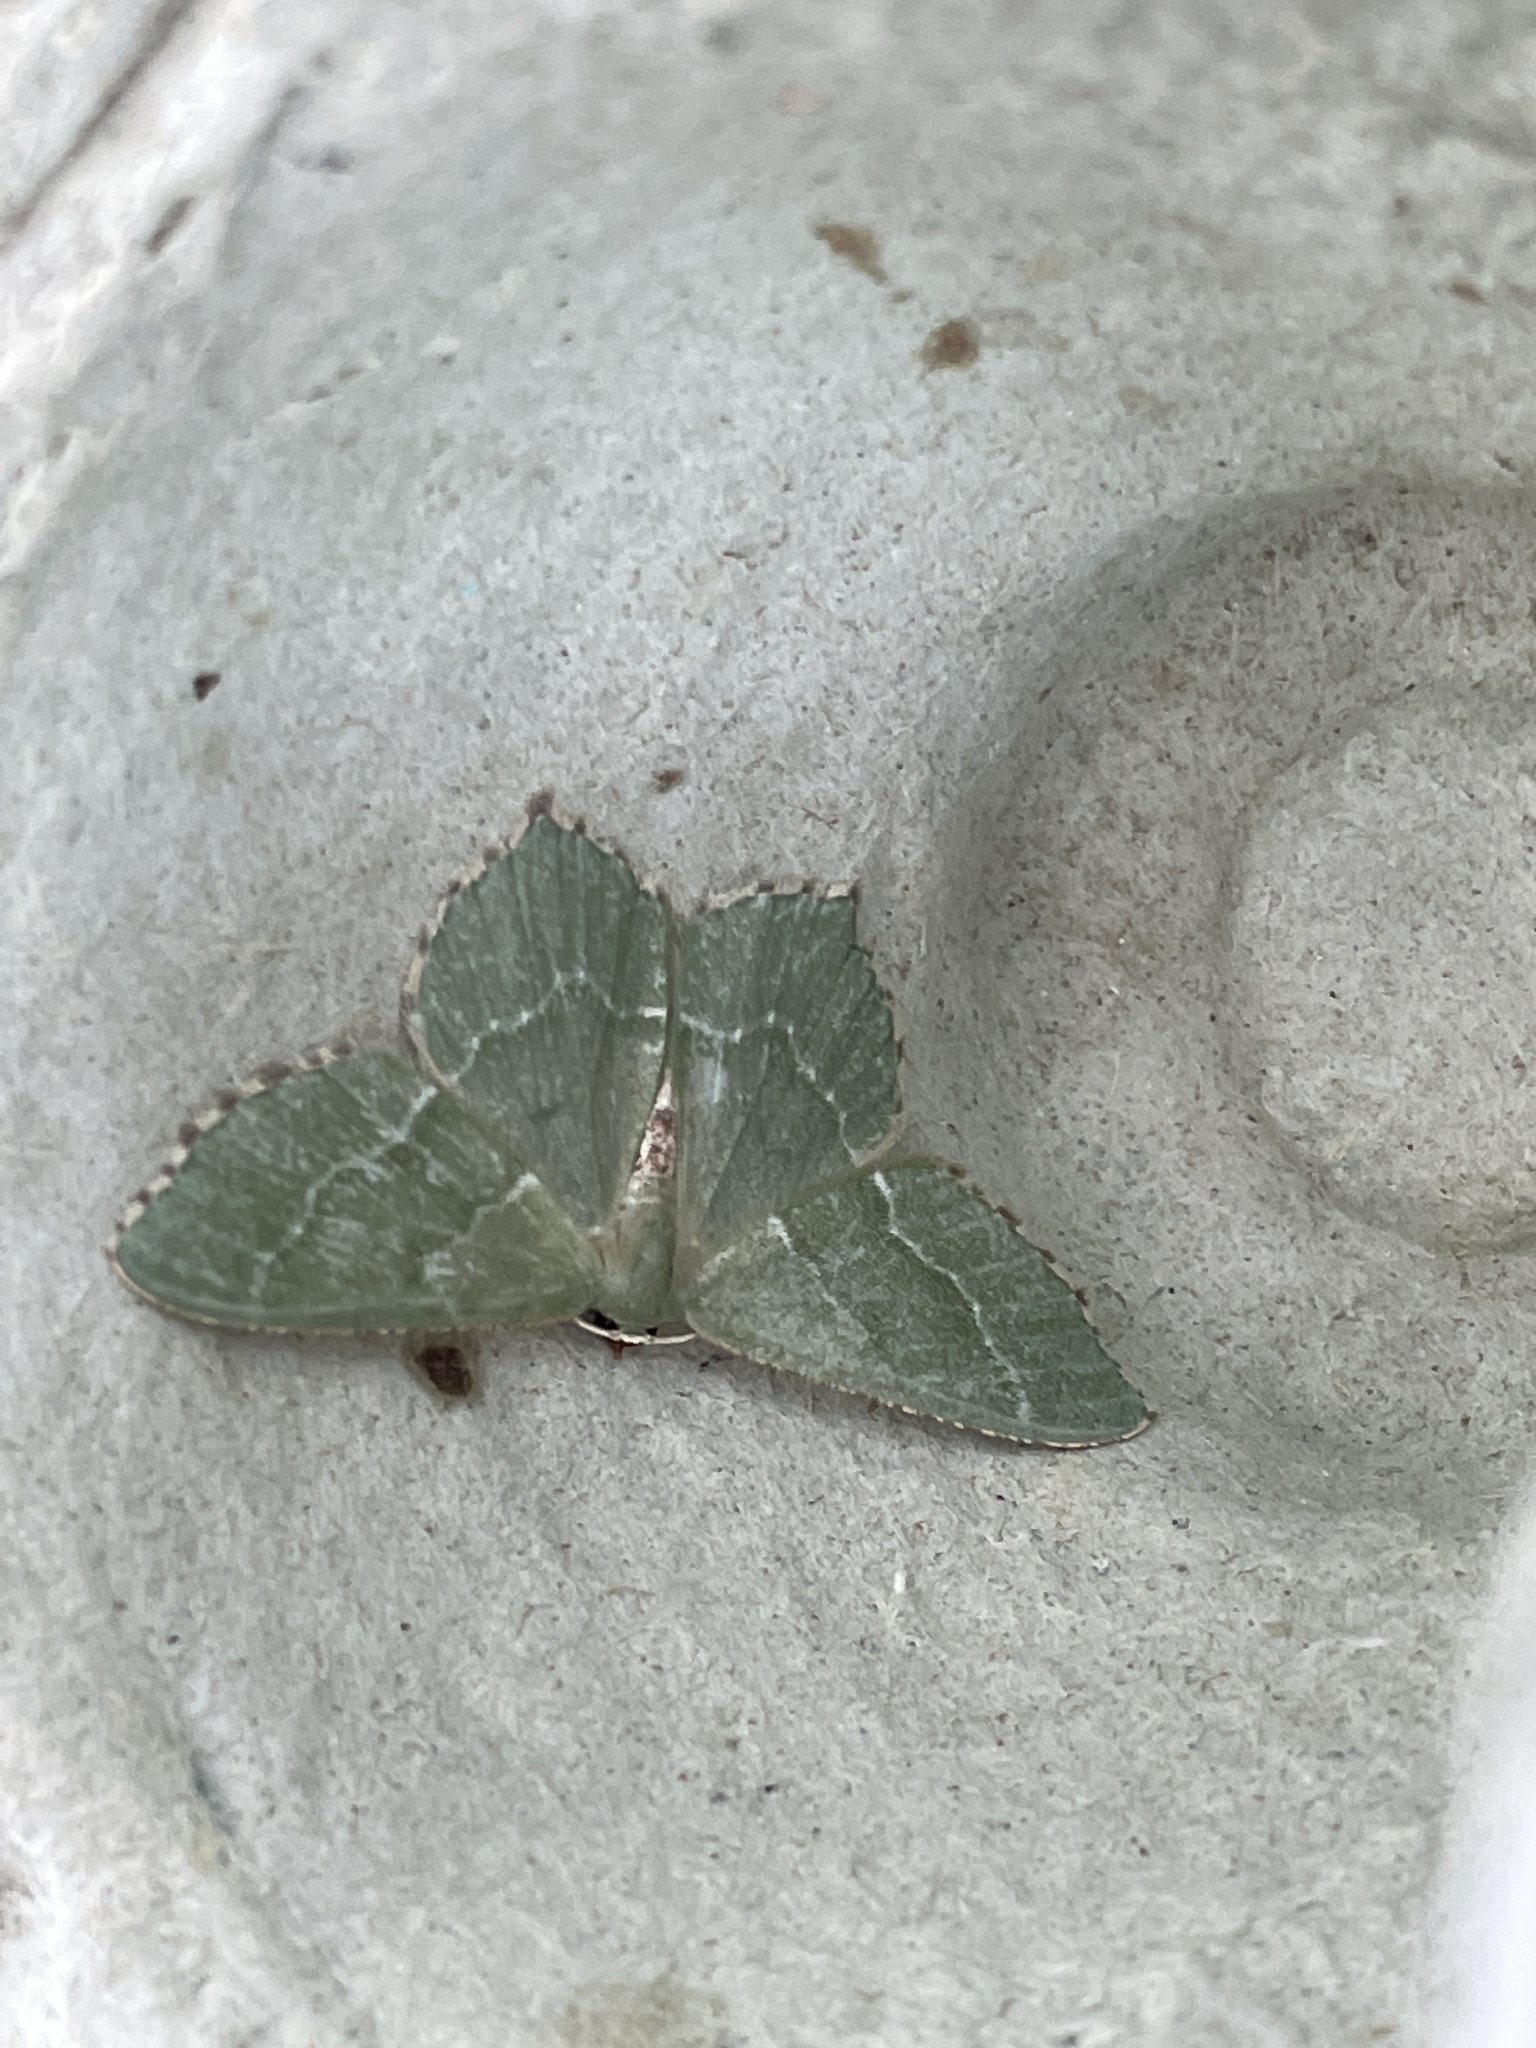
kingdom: Animalia
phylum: Arthropoda
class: Insecta
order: Lepidoptera
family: Geometridae
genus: Hemithea
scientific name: Hemithea aestivaria
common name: Common emerald
